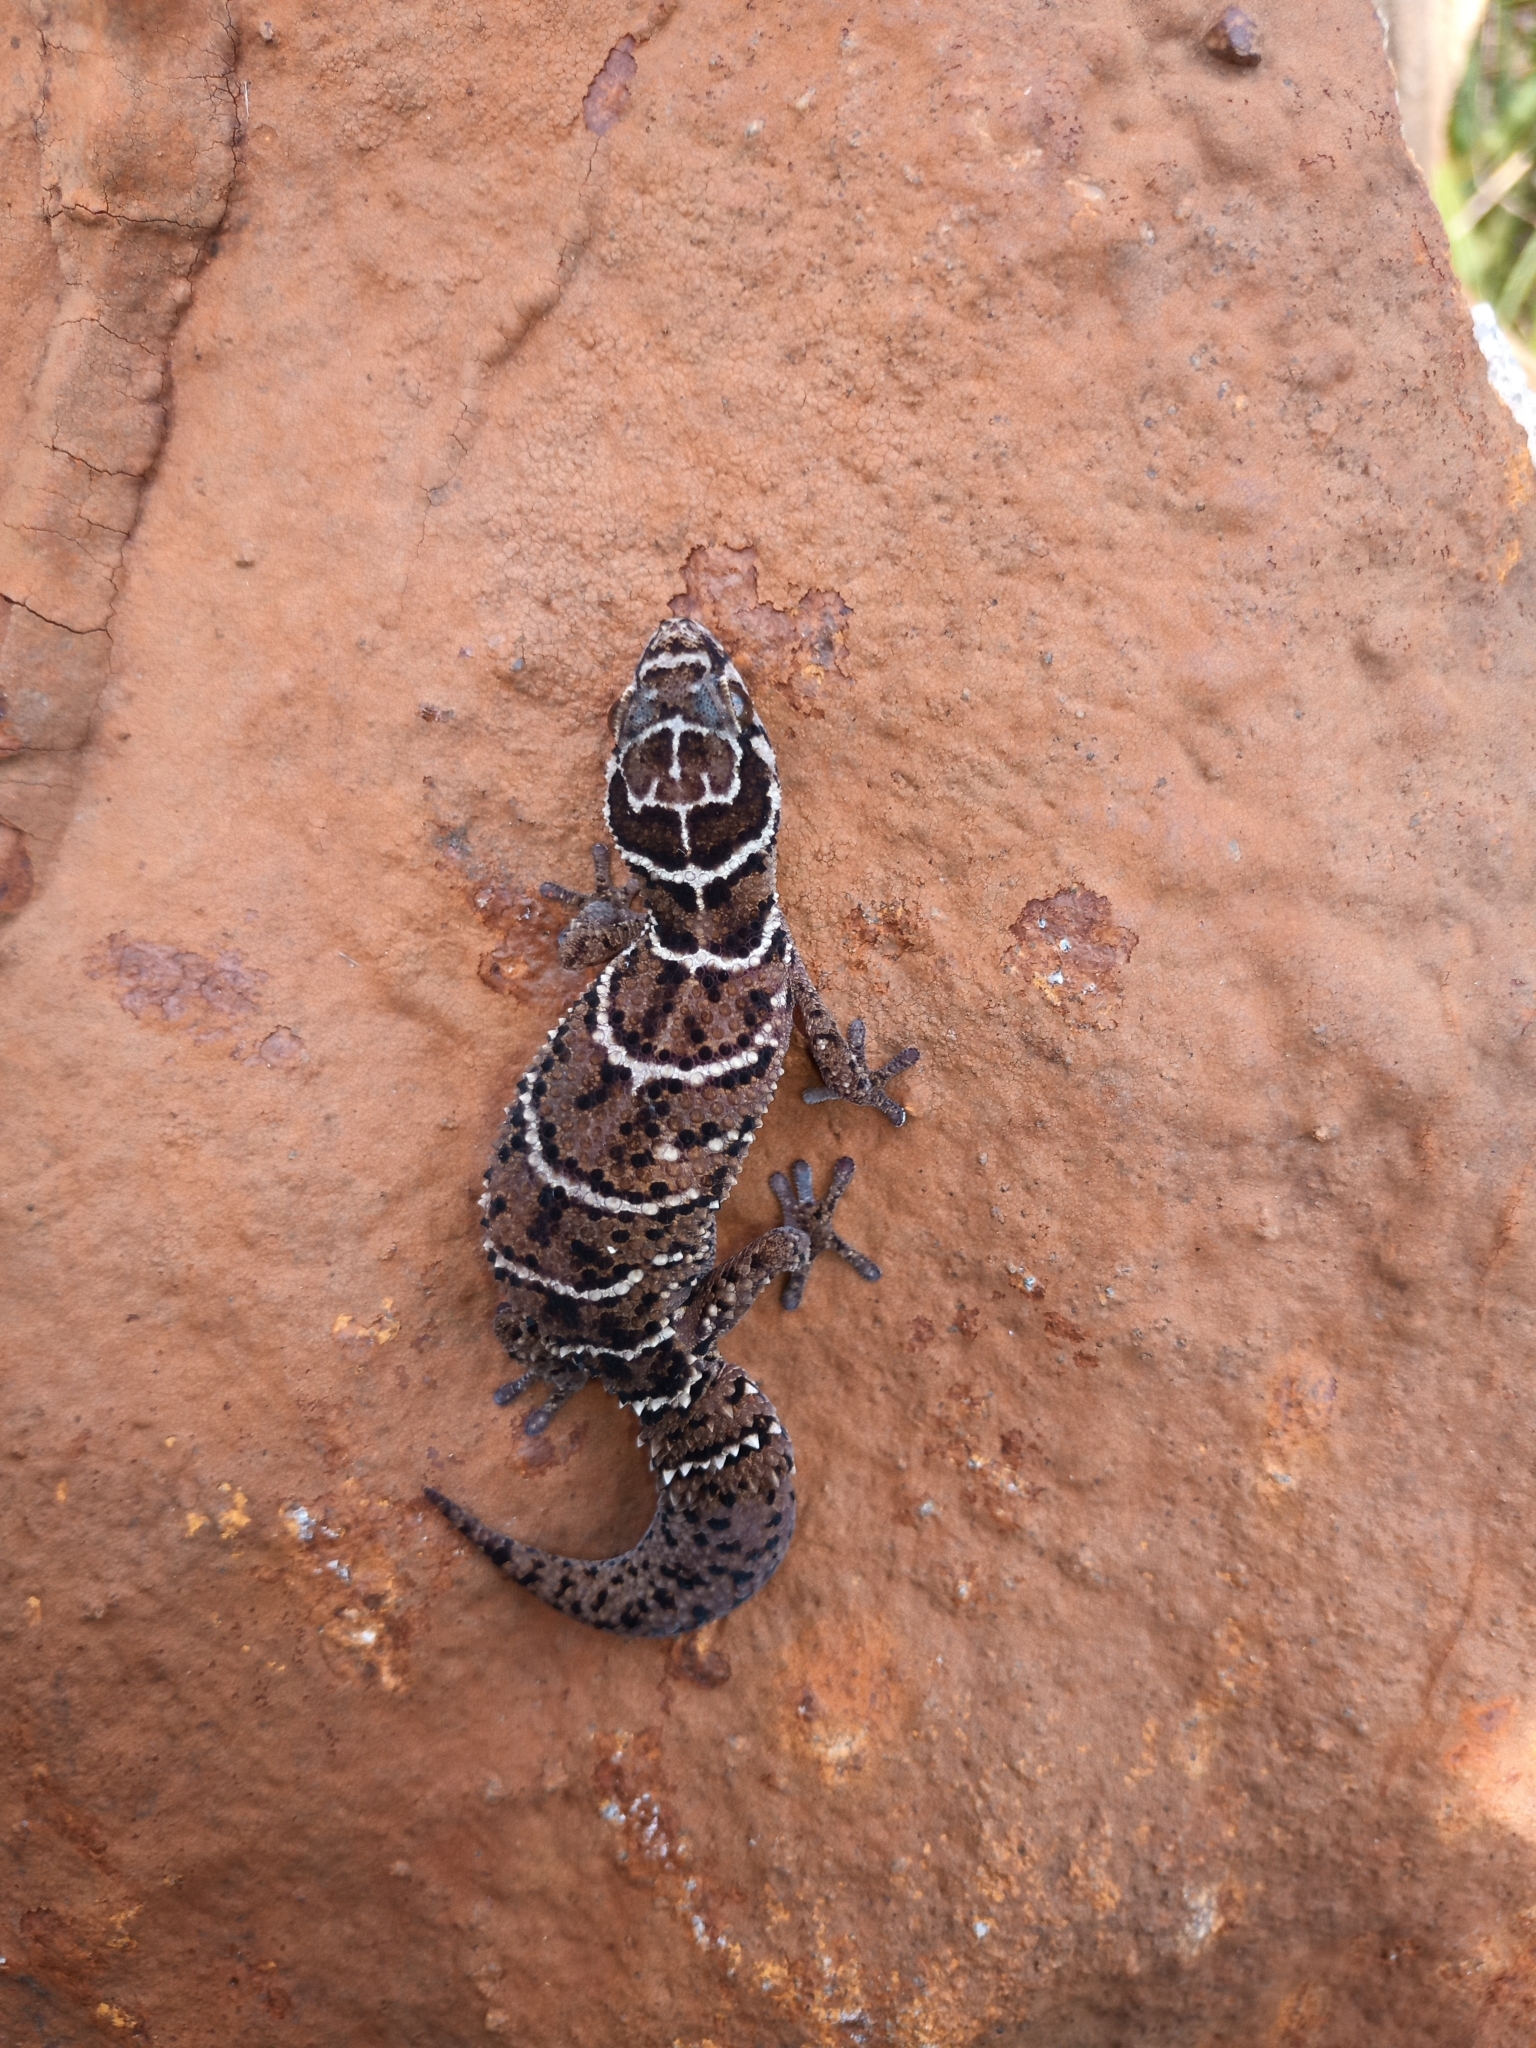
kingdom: Animalia
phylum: Chordata
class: Squamata
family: Gekkonidae
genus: Pachydactylus
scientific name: Pachydactylus vansoni
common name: Van son's gecko
